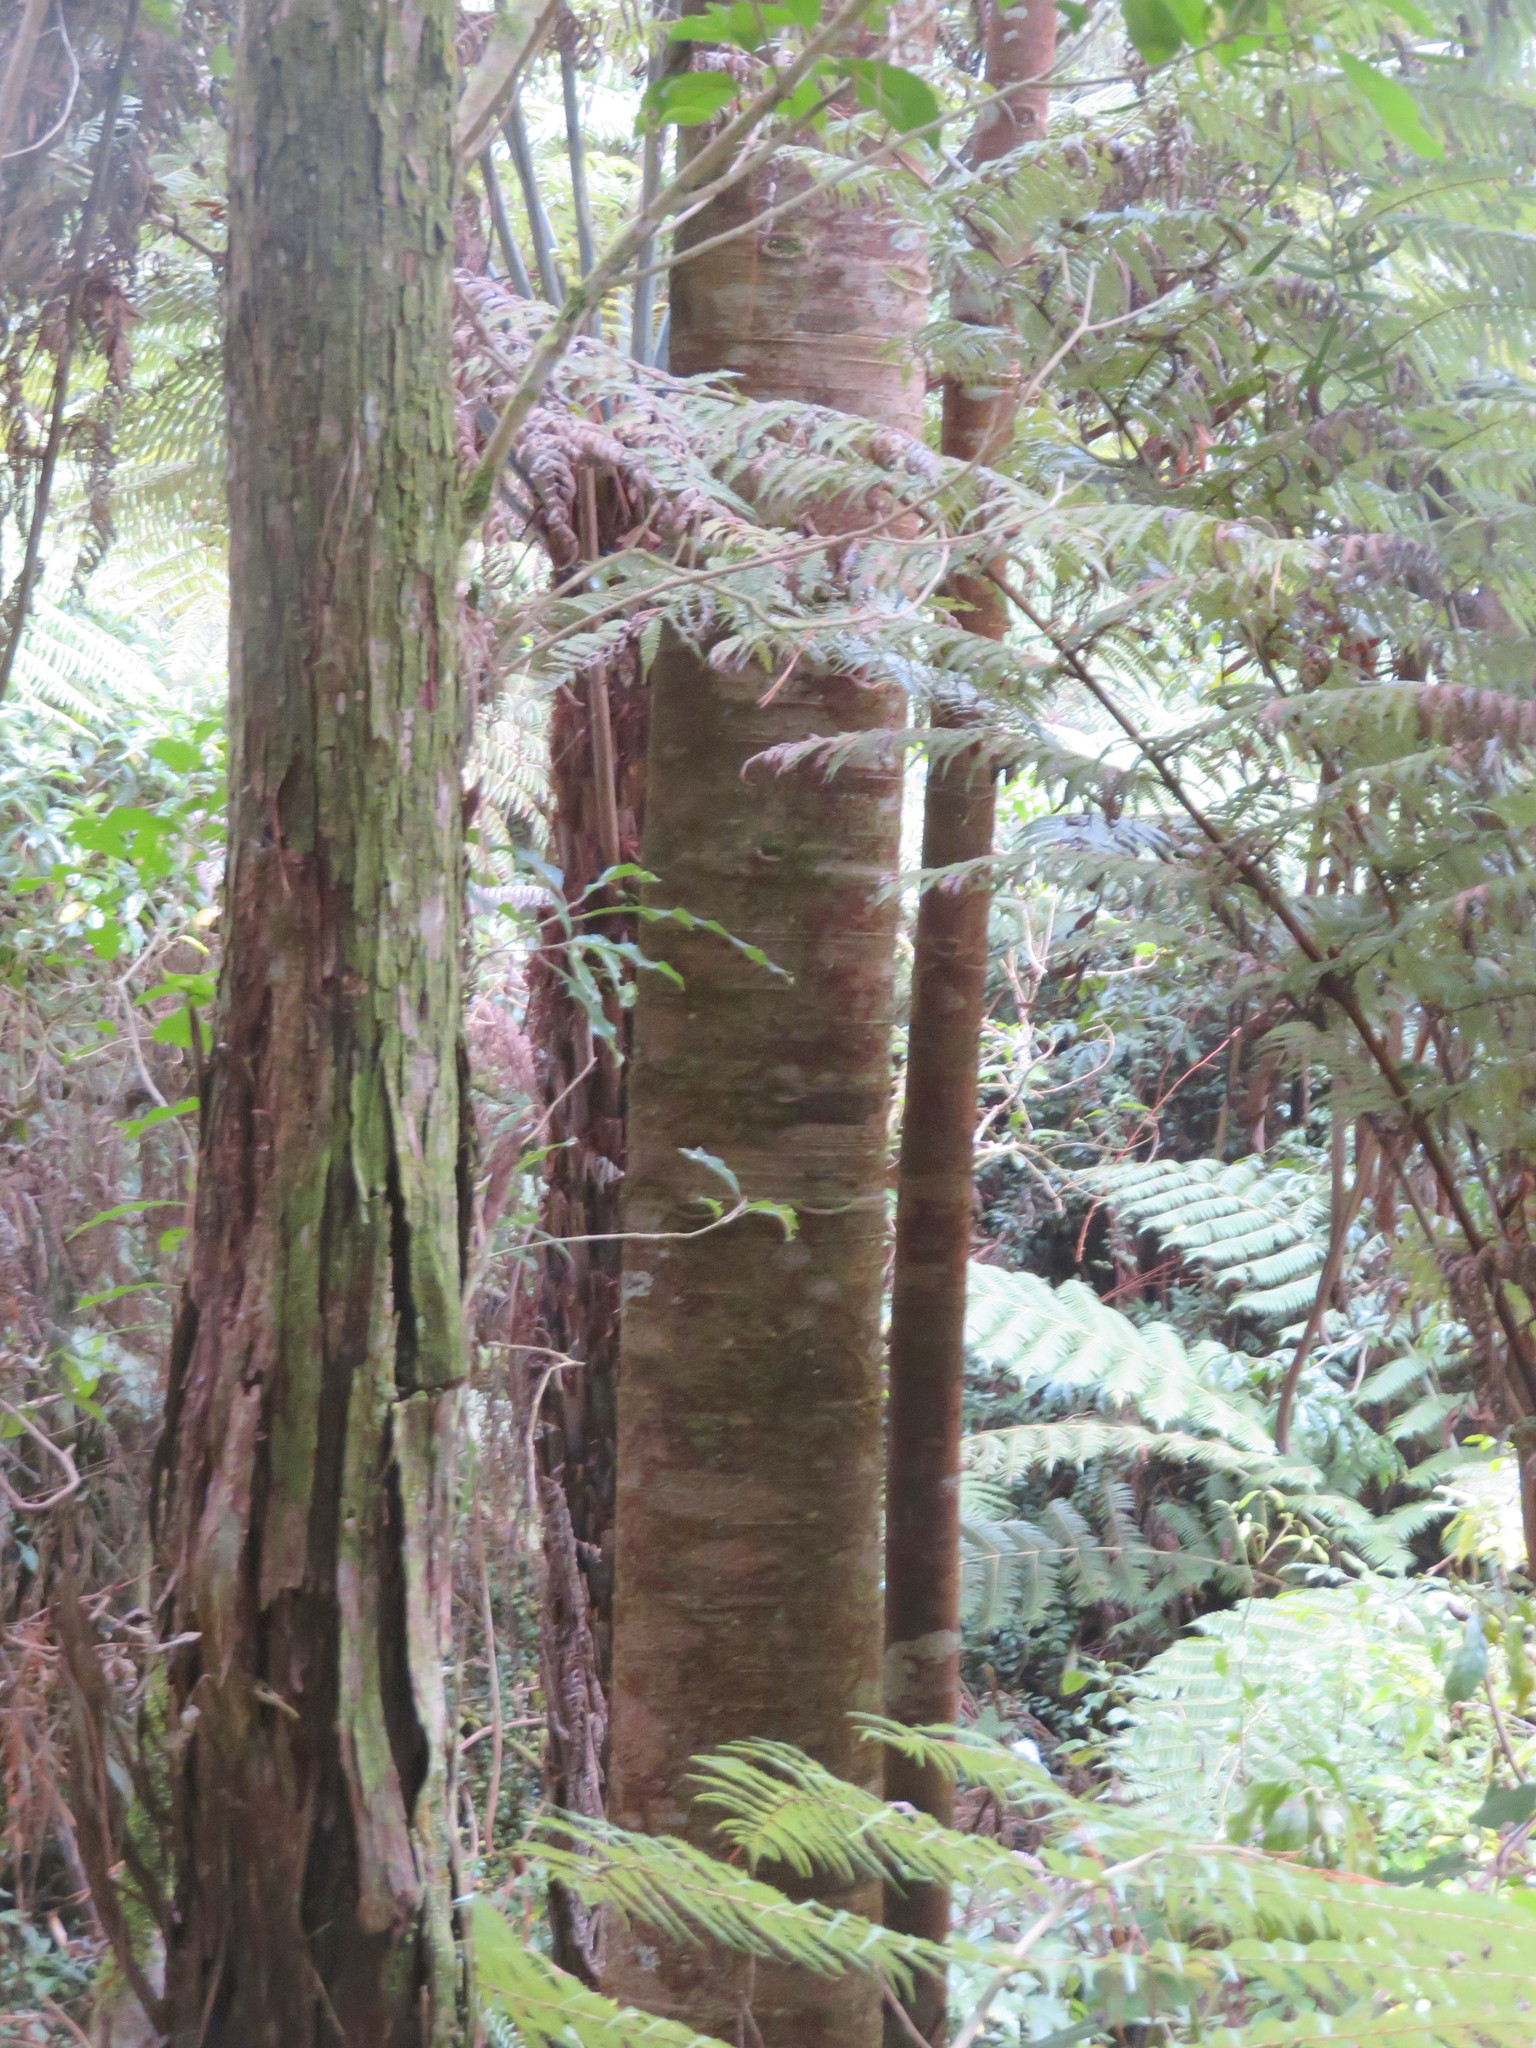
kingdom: Plantae
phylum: Tracheophyta
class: Pinopsida
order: Pinales
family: Araucariaceae
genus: Agathis
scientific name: Agathis australis
